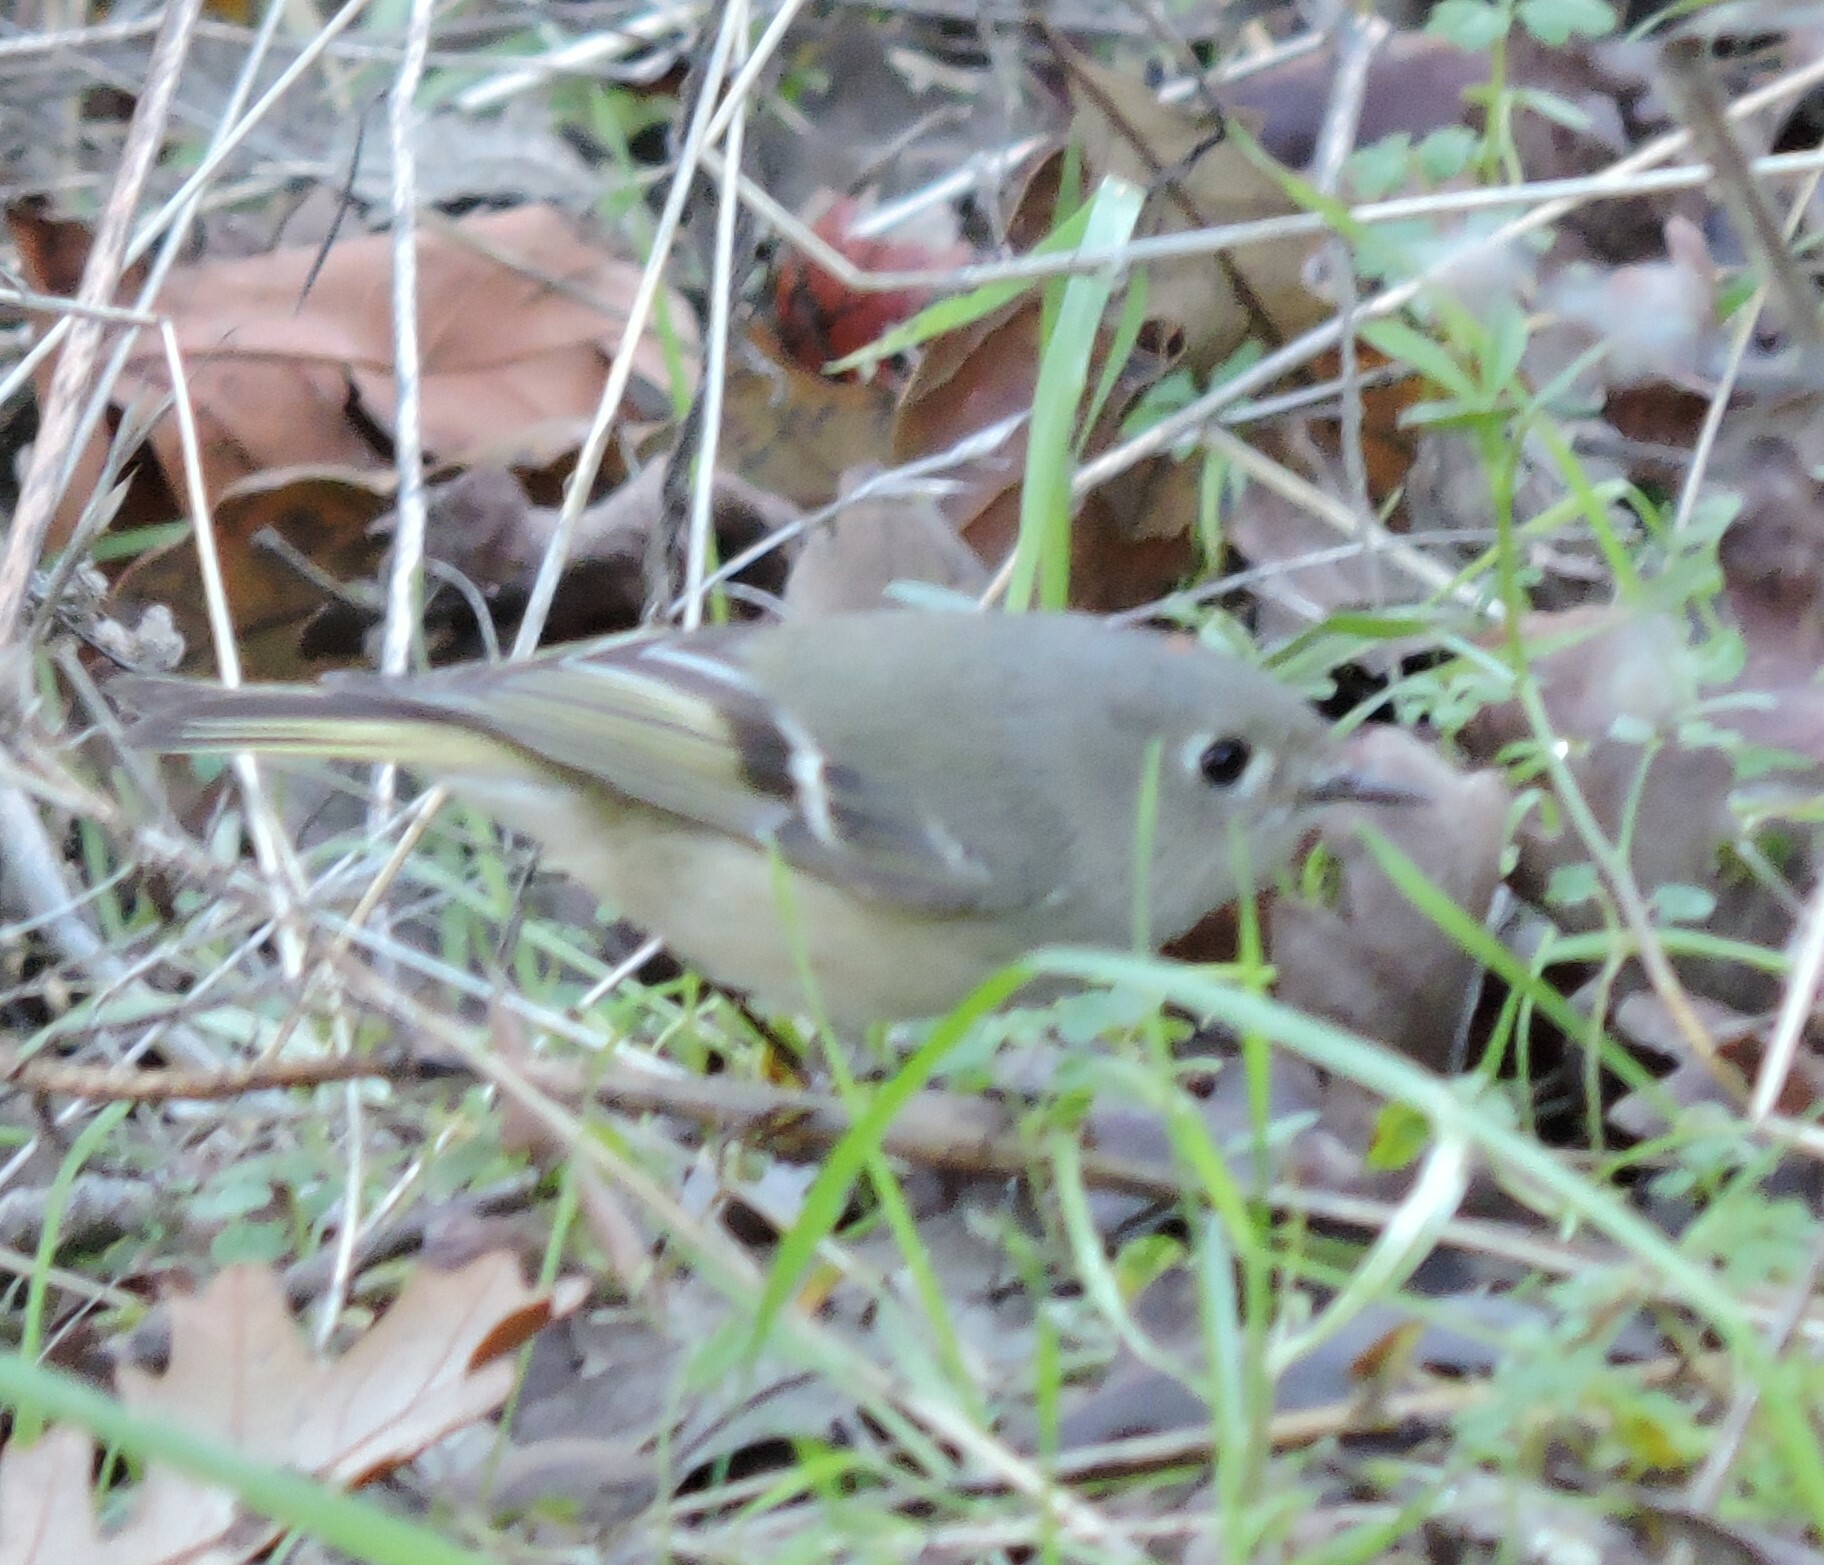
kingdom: Animalia
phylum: Chordata
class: Aves
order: Passeriformes
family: Regulidae
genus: Regulus
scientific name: Regulus calendula
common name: Ruby-crowned kinglet
